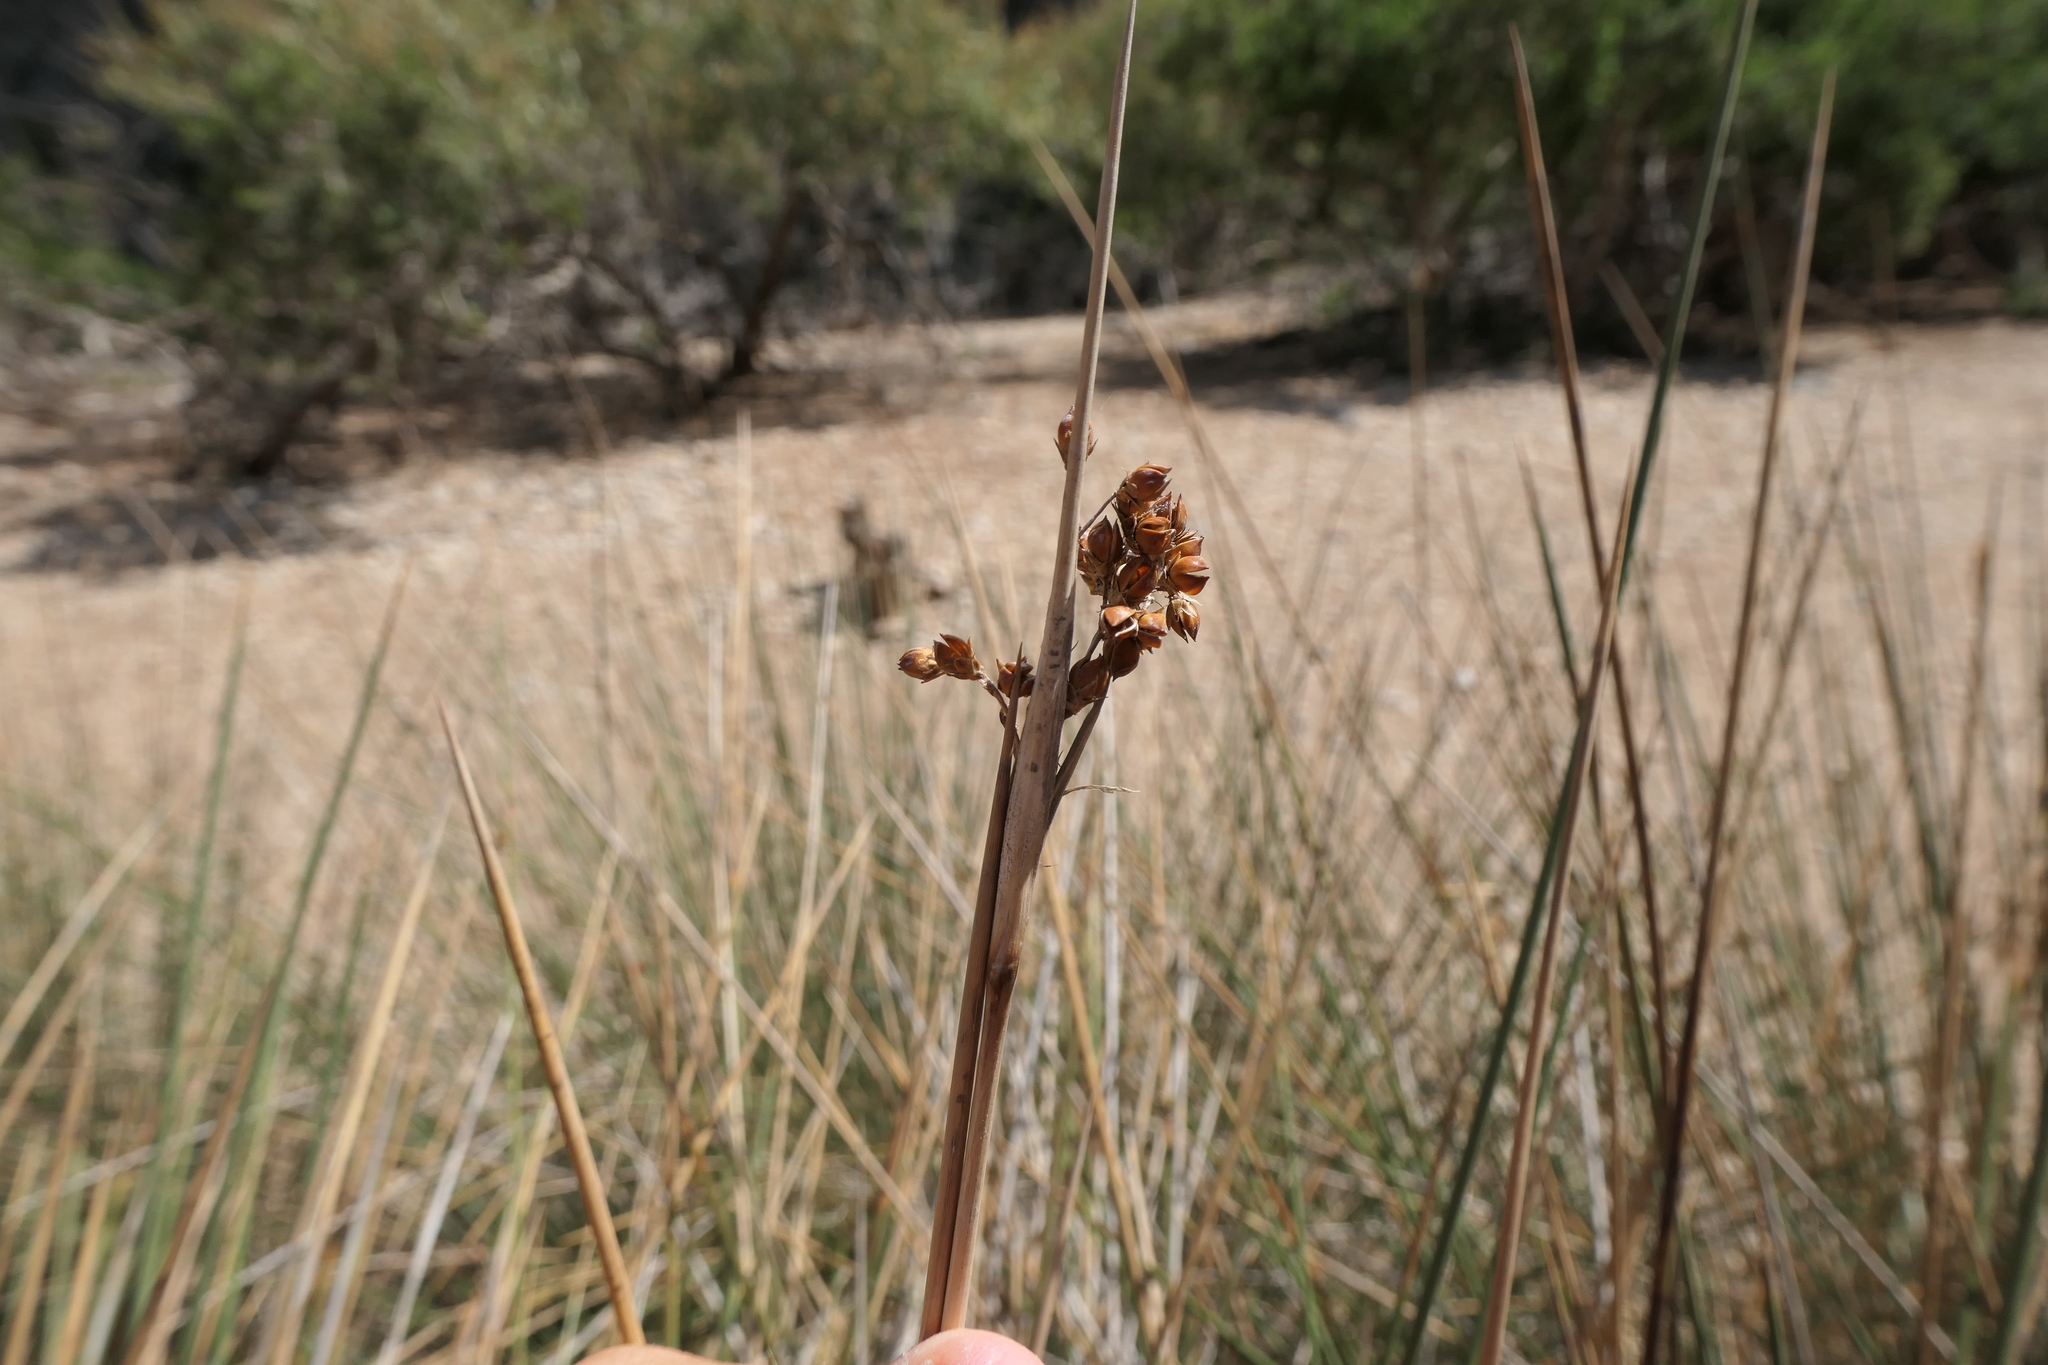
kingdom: Plantae
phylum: Tracheophyta
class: Liliopsida
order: Poales
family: Juncaceae
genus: Juncus
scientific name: Juncus acutus
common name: Sharp rush
